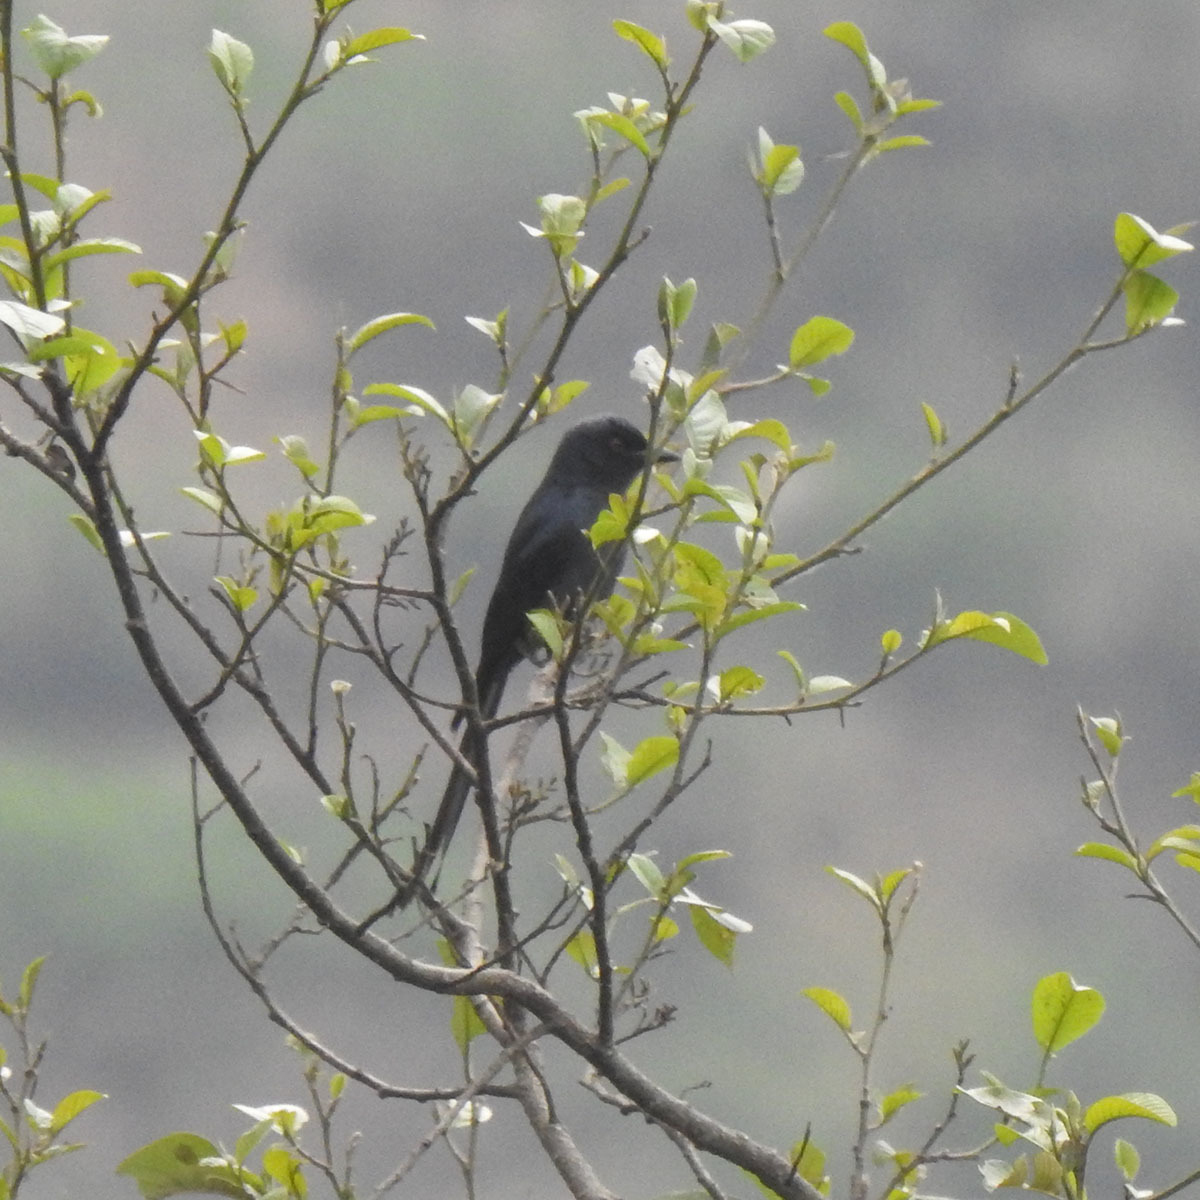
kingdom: Animalia
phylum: Chordata
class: Aves
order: Passeriformes
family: Dicruridae
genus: Dicrurus
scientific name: Dicrurus leucophaeus
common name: Ashy drongo
